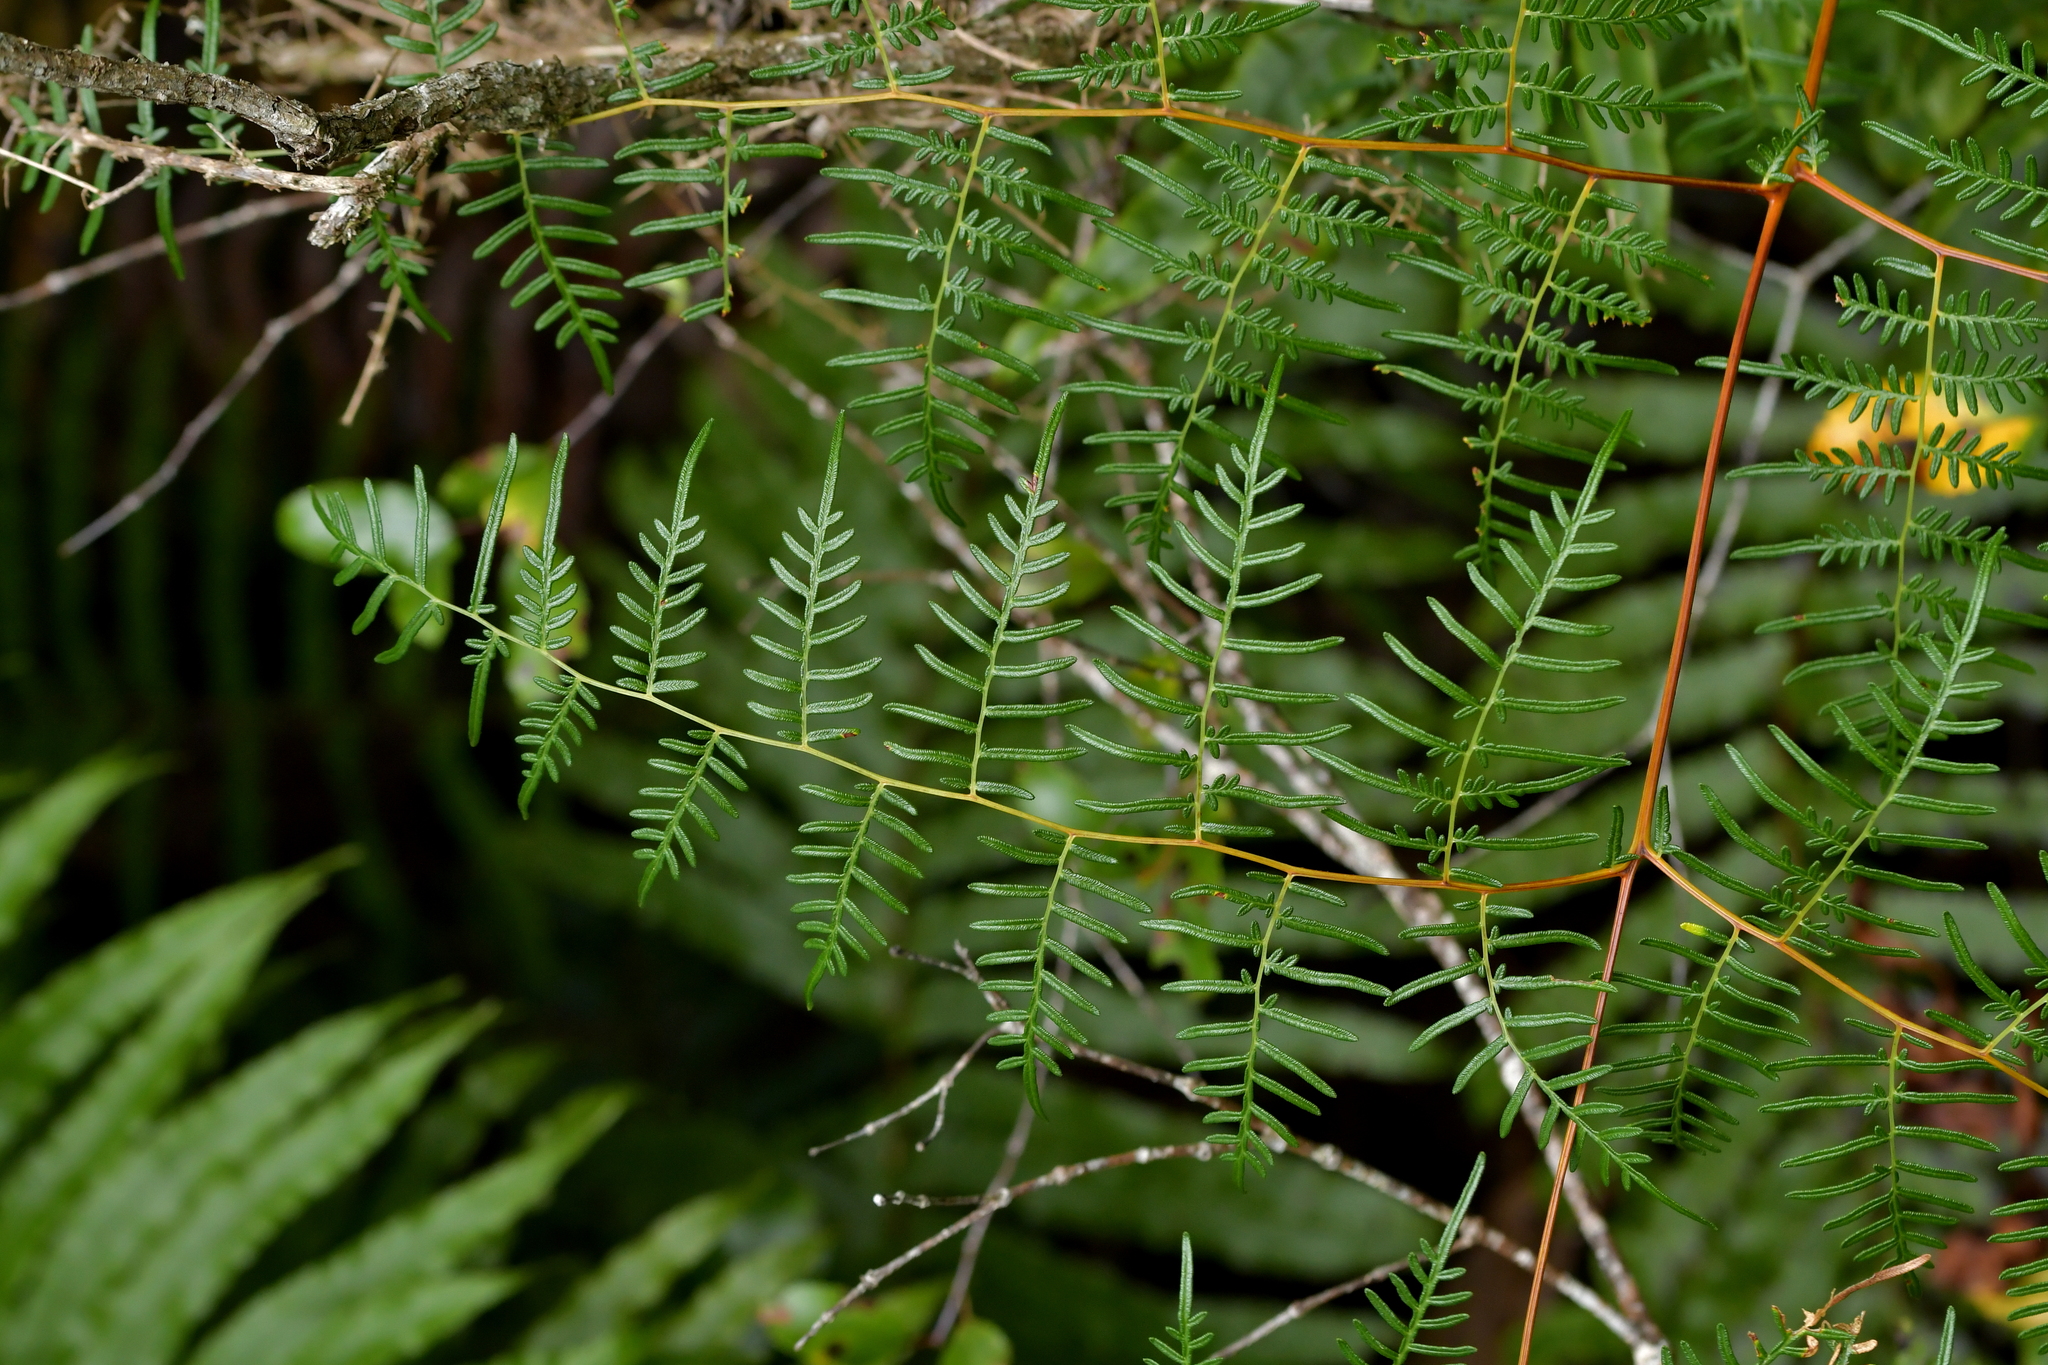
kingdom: Plantae
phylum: Tracheophyta
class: Polypodiopsida
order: Polypodiales
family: Dennstaedtiaceae
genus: Pteridium
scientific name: Pteridium esculentum
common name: Bracken fern
